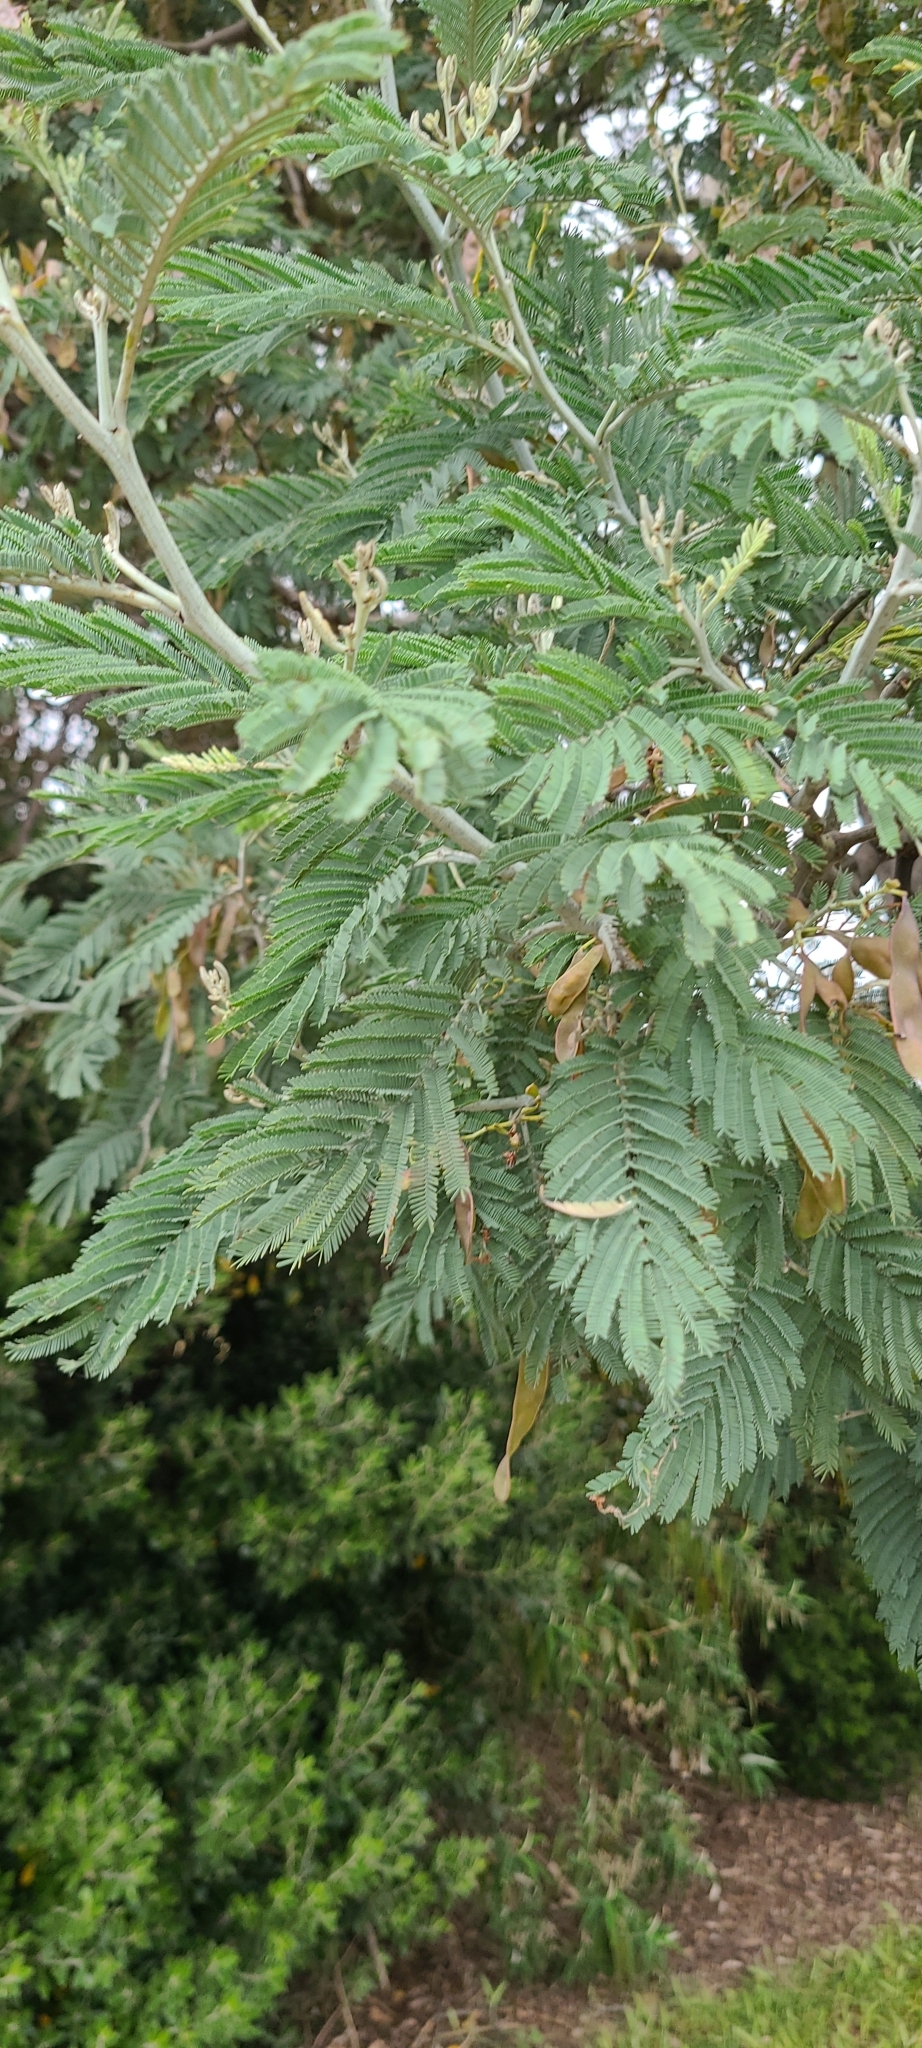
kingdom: Plantae
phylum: Tracheophyta
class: Magnoliopsida
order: Fabales
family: Fabaceae
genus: Acacia
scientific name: Acacia baileyana
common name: Cootamundra wattle
